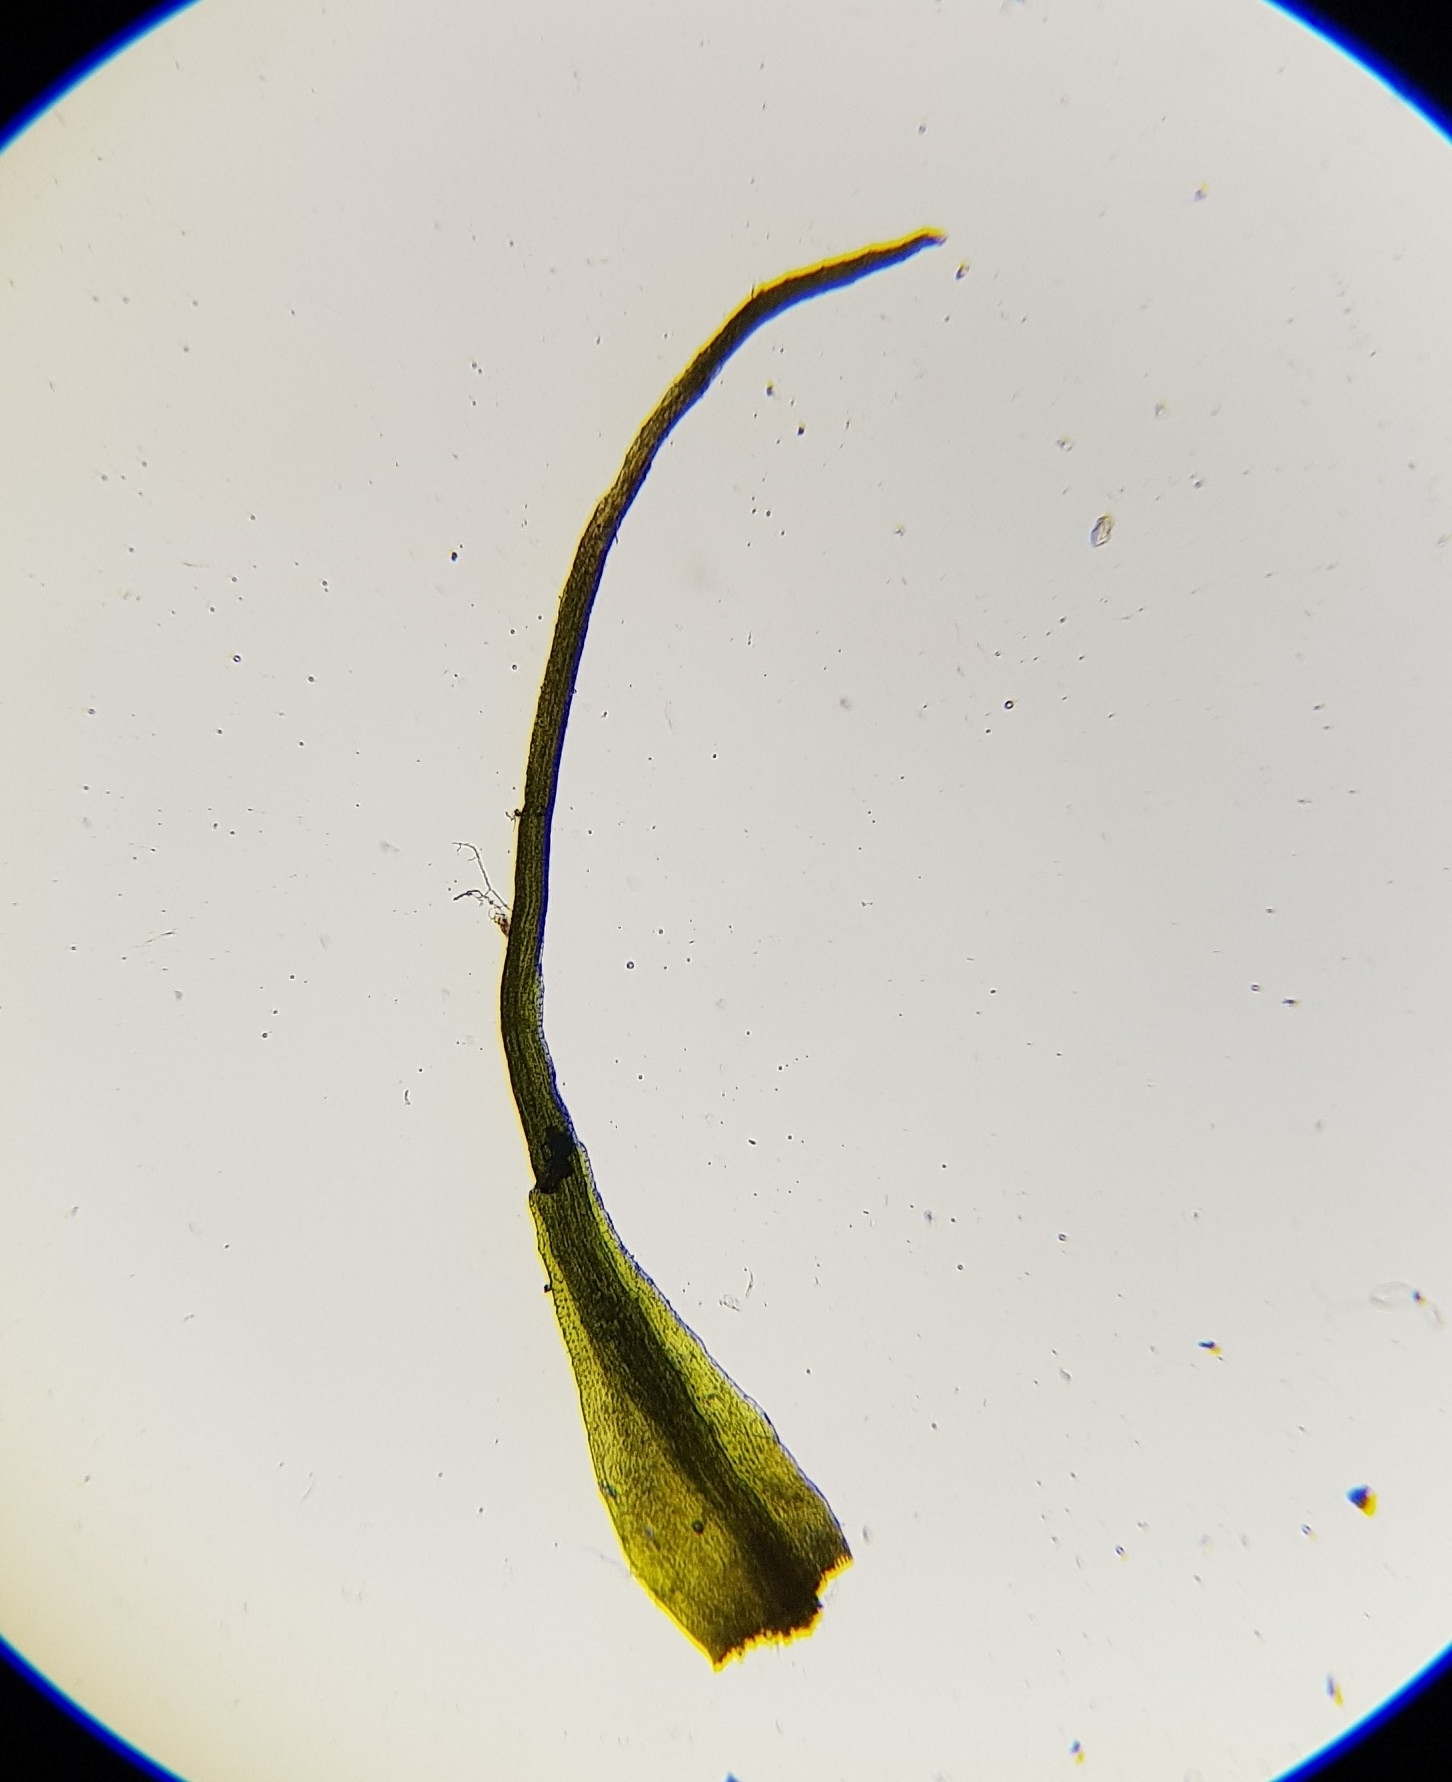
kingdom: Plantae
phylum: Bryophyta
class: Bryopsida
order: Dicranales
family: Leucobryaceae
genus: Campylopus
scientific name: Campylopus pyriformis
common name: Dwarf swan-neck moss
